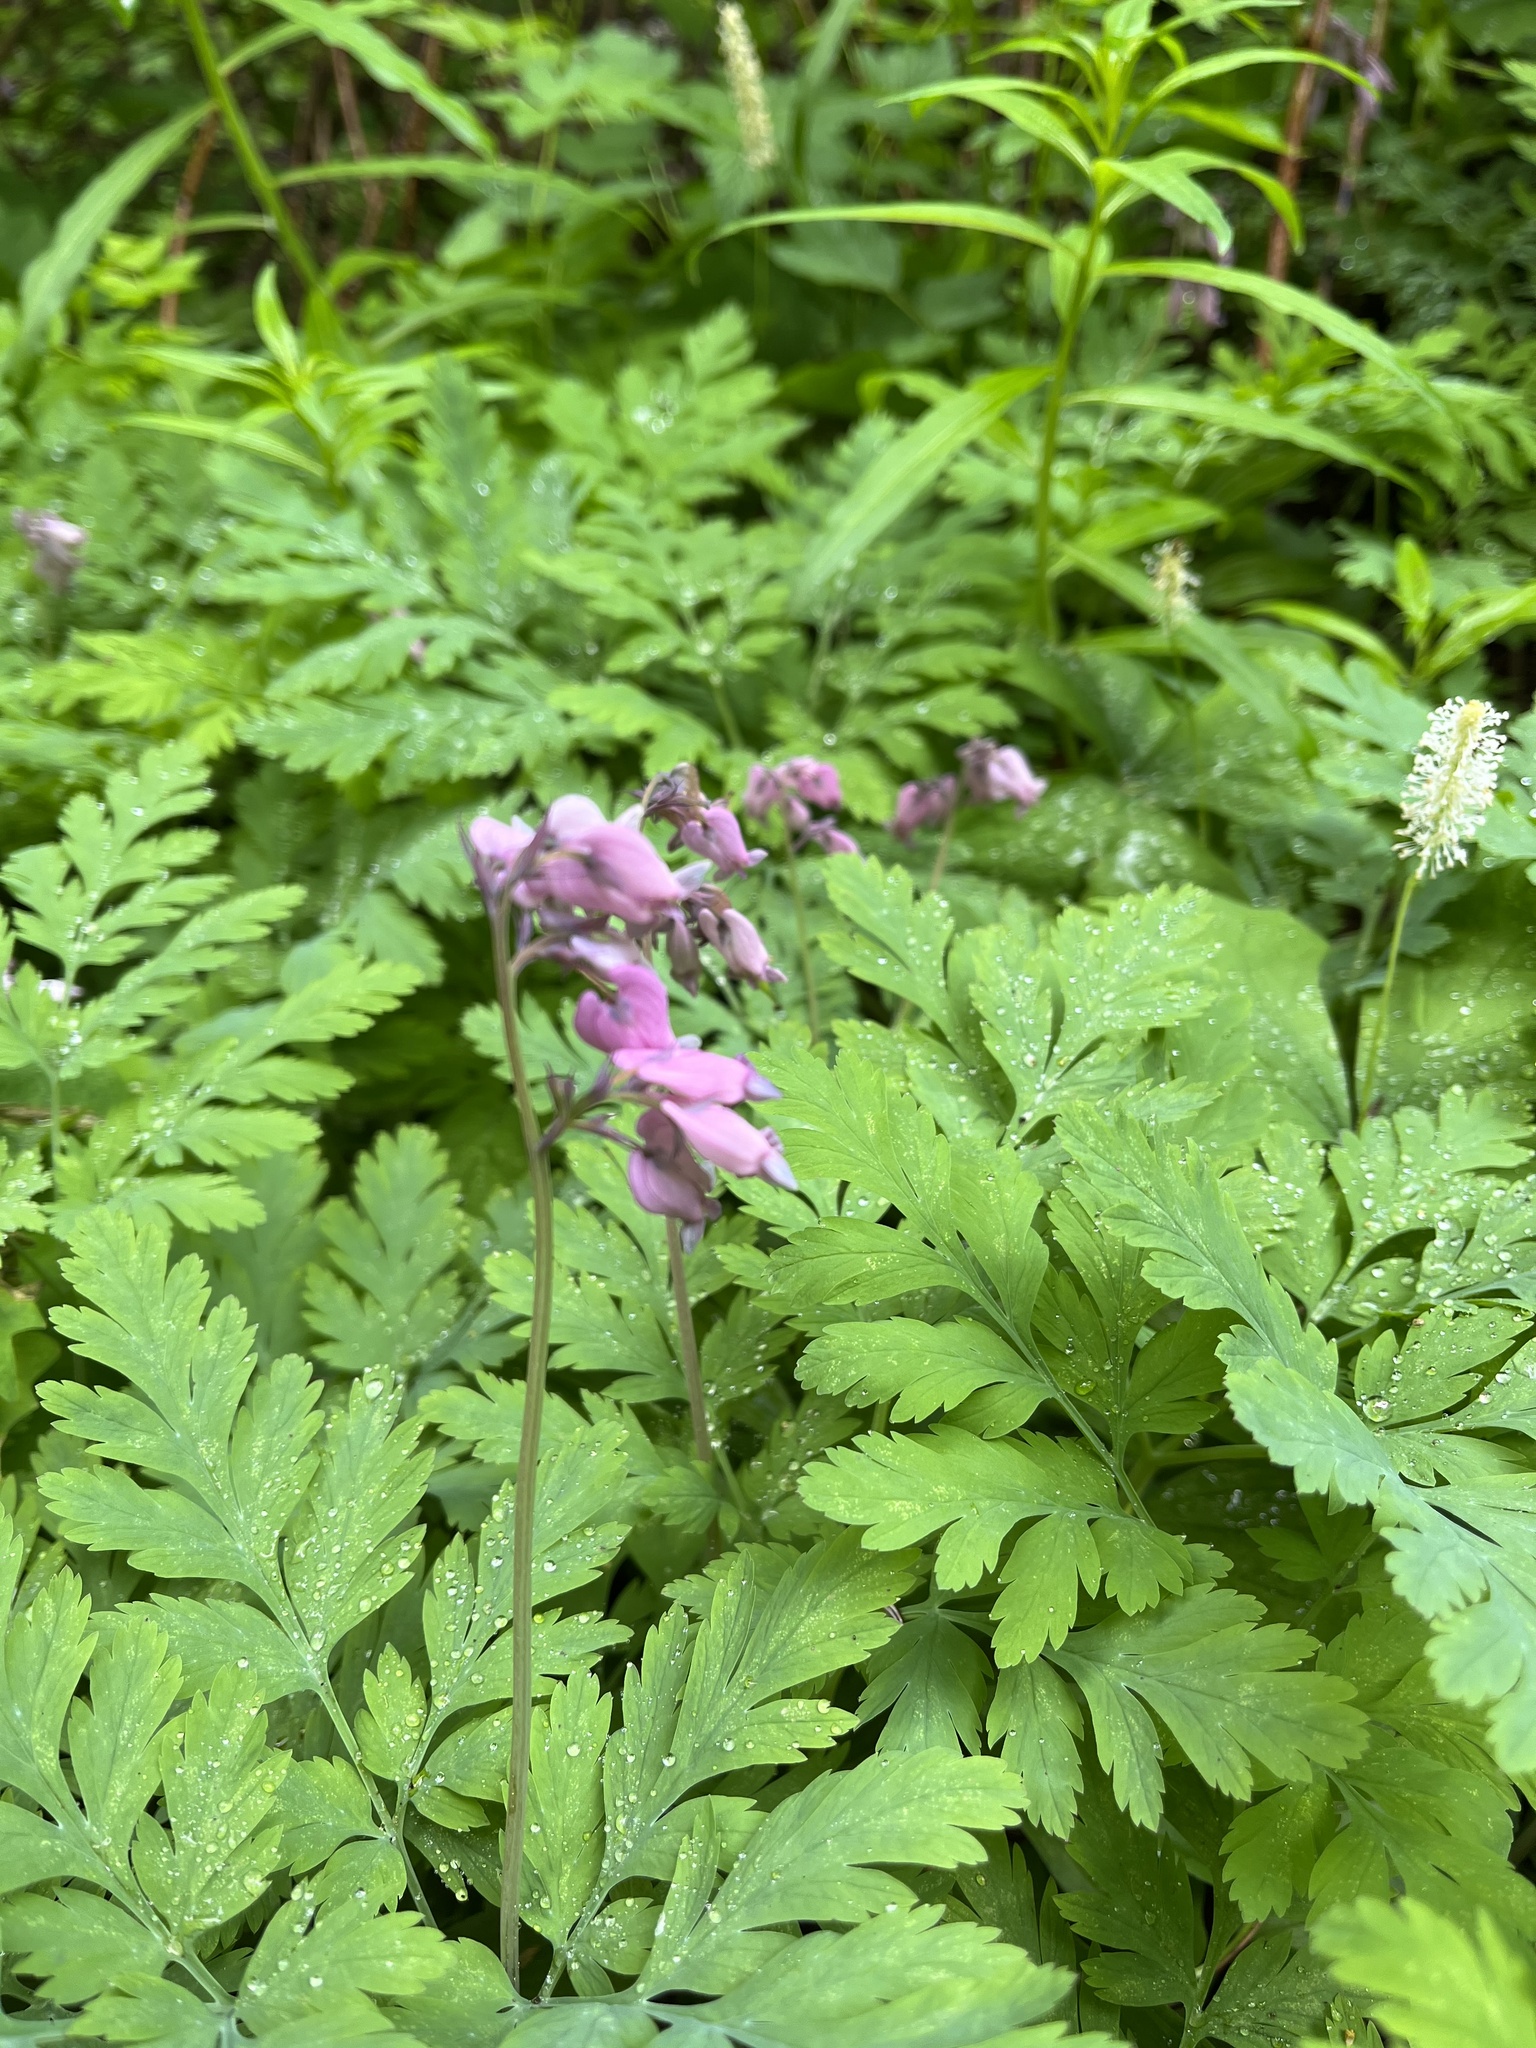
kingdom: Plantae
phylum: Tracheophyta
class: Magnoliopsida
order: Ranunculales
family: Papaveraceae
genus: Dicentra
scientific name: Dicentra formosa
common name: Bleeding-heart
